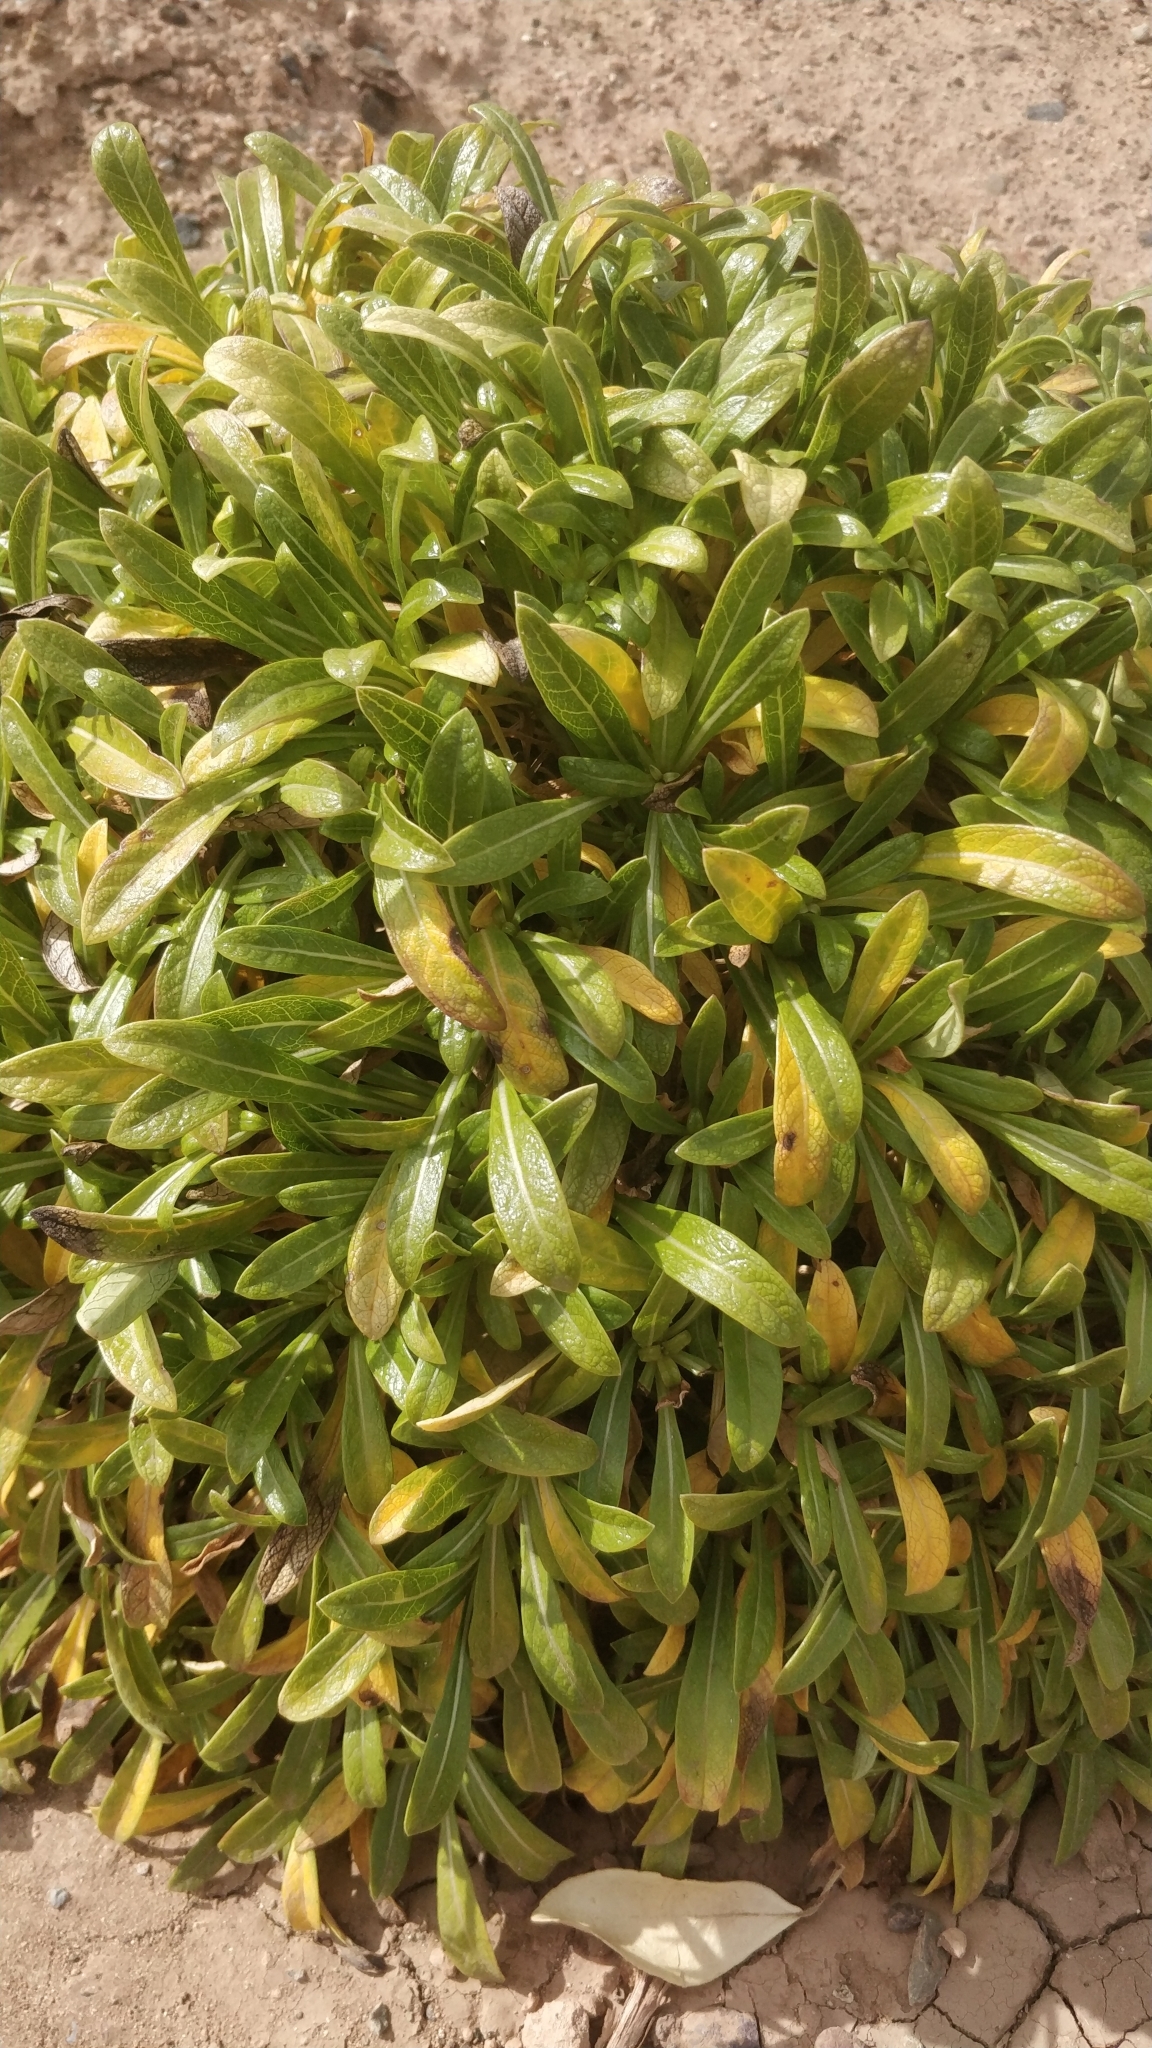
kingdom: Plantae
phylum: Tracheophyta
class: Magnoliopsida
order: Gentianales
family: Rubiaceae
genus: Phyllis
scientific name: Phyllis nobla
